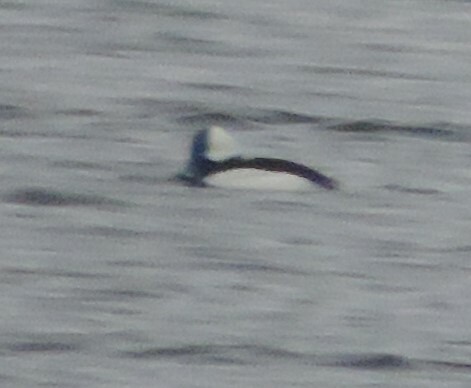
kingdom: Animalia
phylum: Chordata
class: Aves
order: Anseriformes
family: Anatidae
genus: Bucephala
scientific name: Bucephala albeola
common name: Bufflehead
